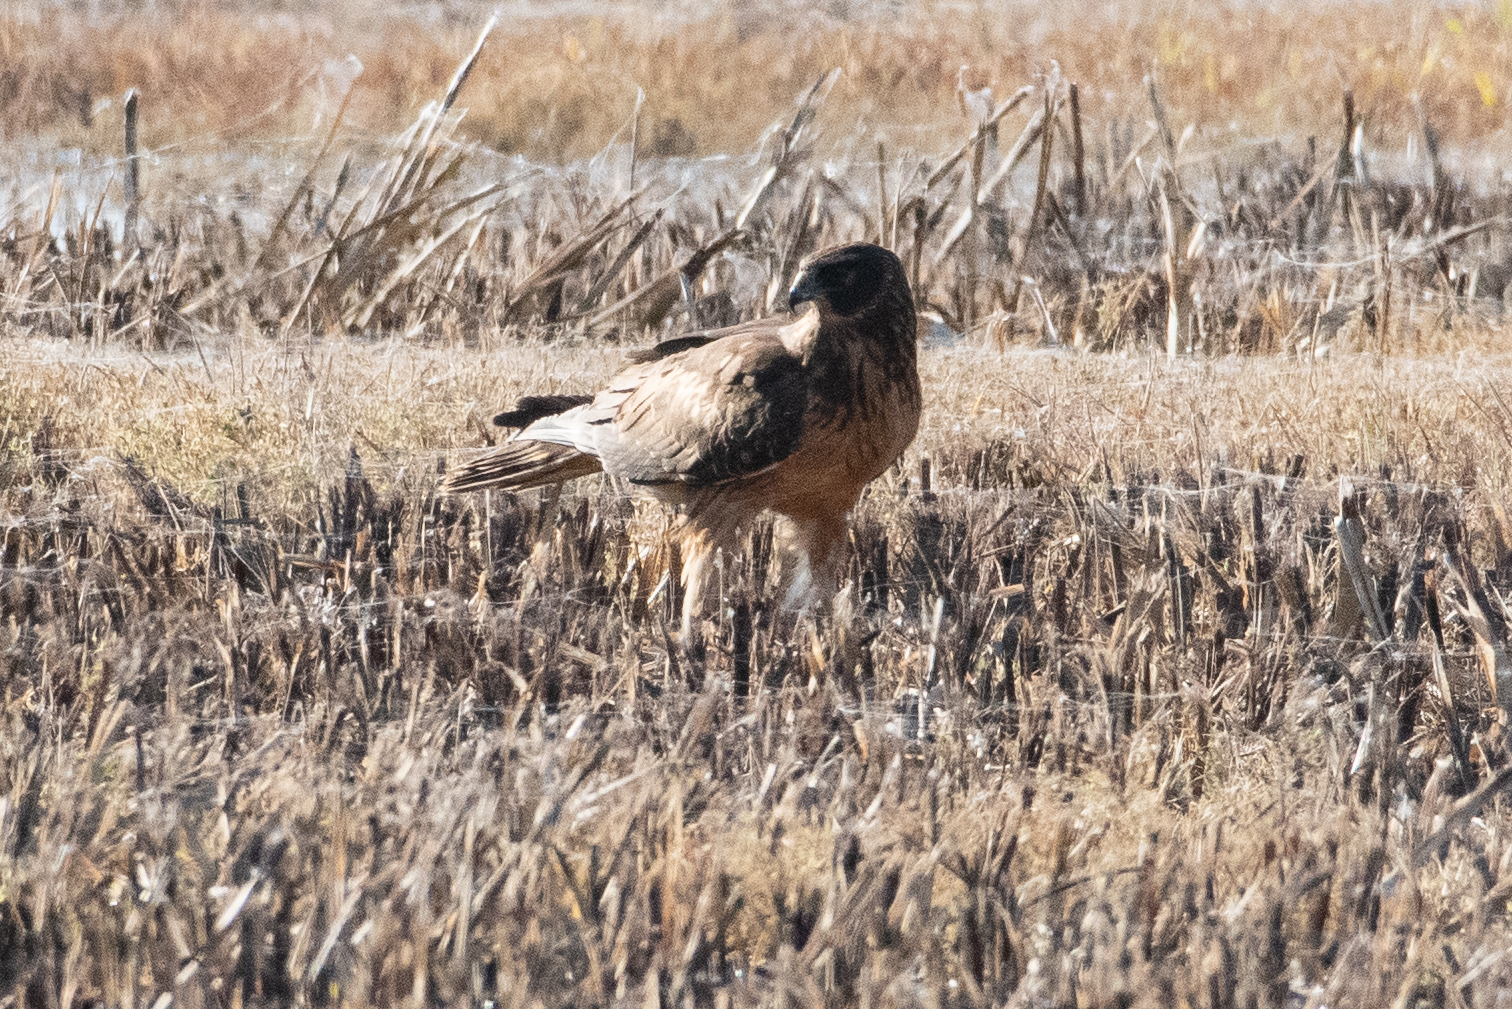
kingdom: Animalia
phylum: Chordata
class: Aves
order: Accipitriformes
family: Accipitridae
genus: Circus
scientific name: Circus cyaneus
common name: Hen harrier
